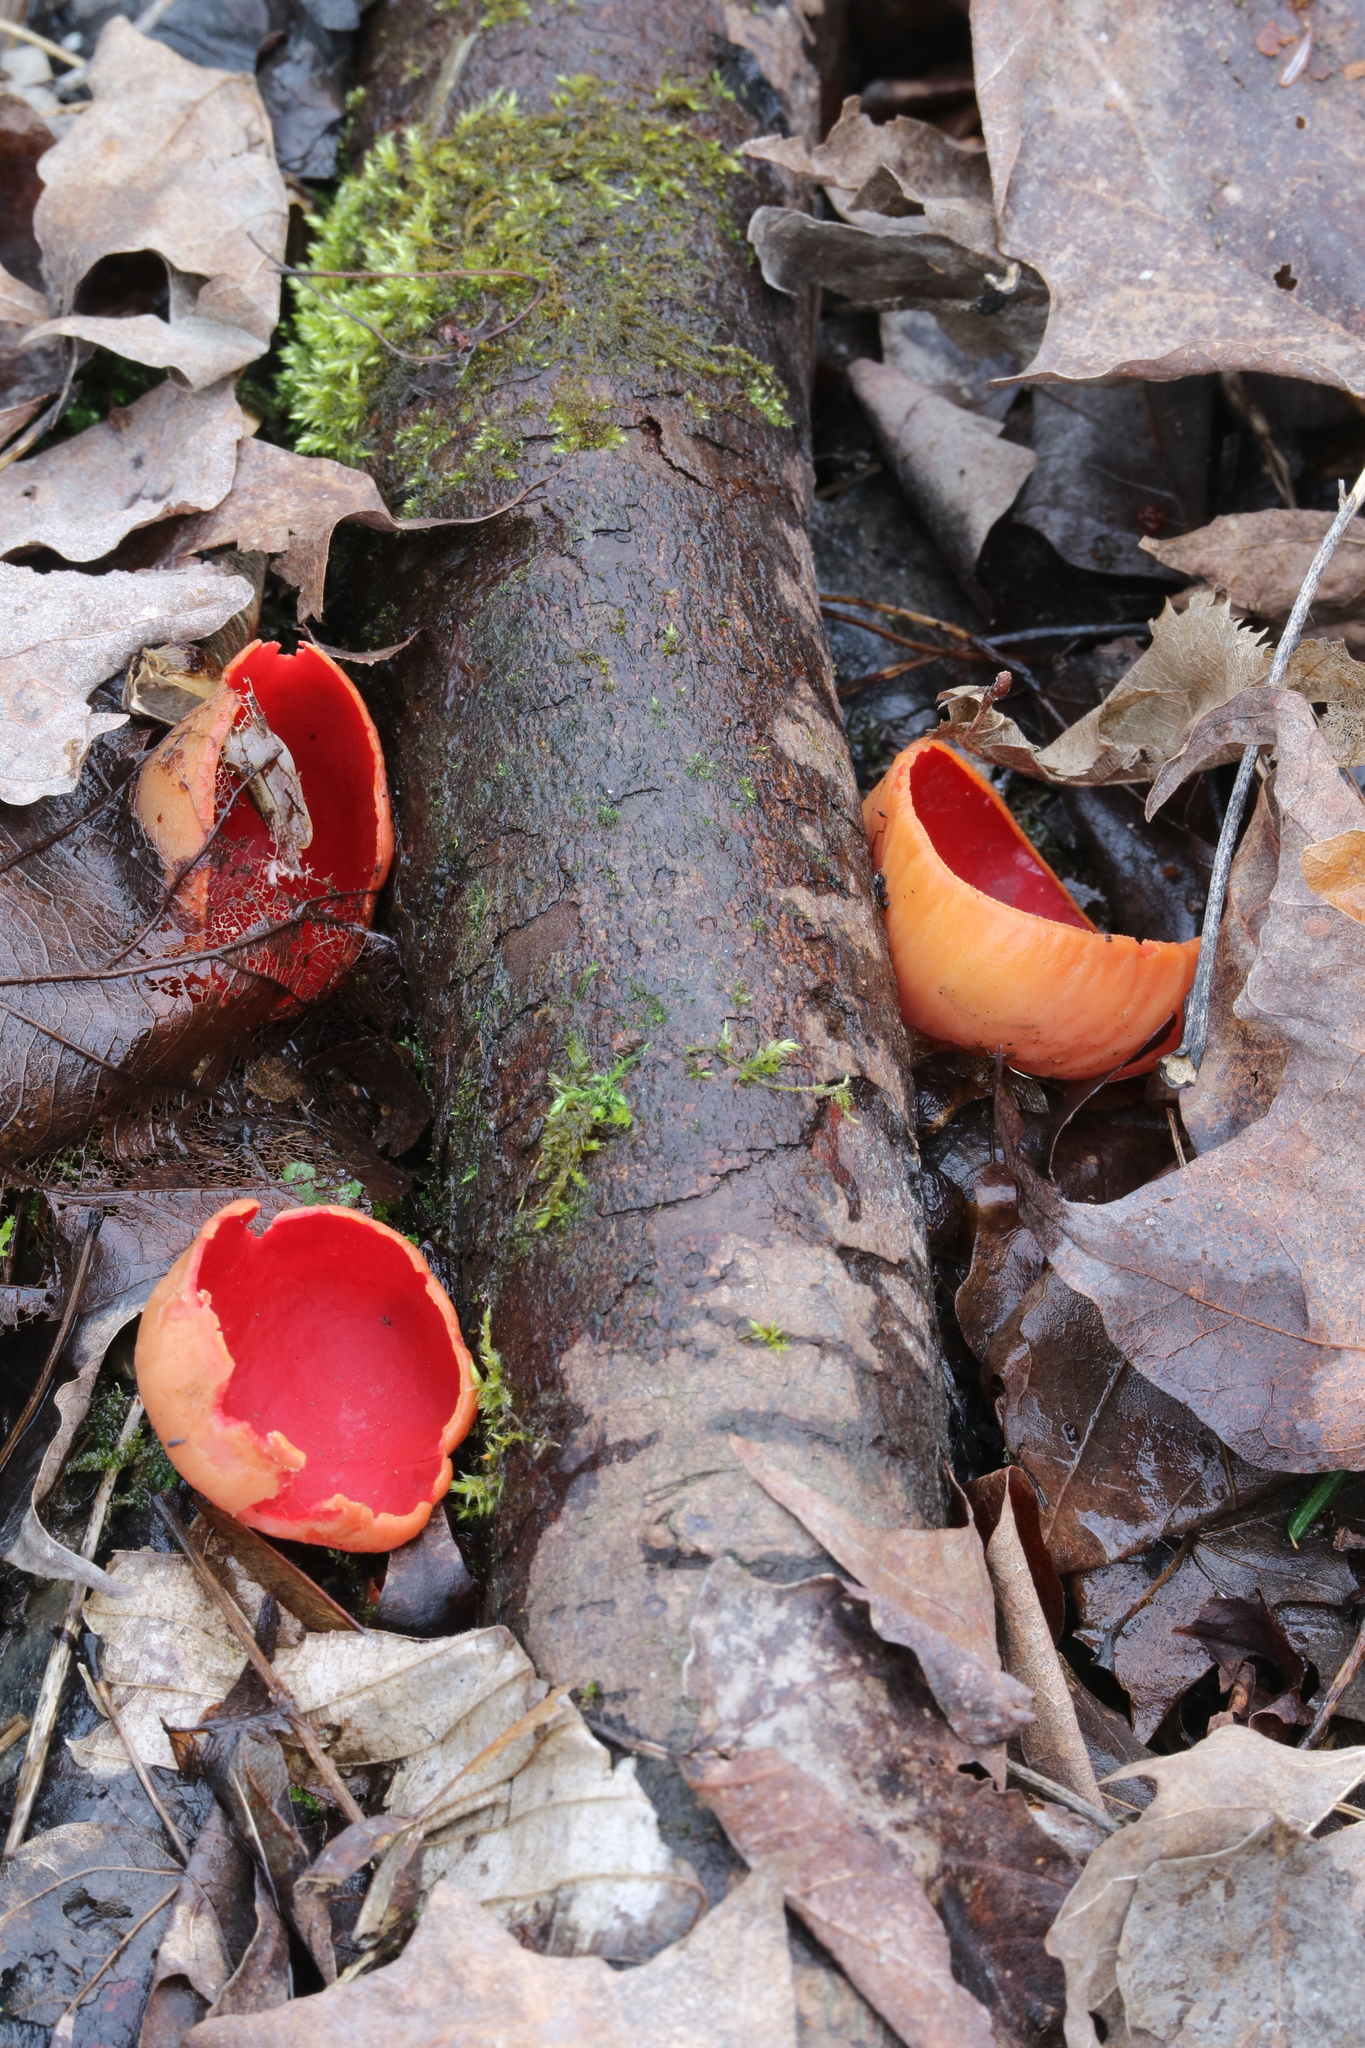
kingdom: Fungi
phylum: Ascomycota
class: Pezizomycetes
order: Pezizales
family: Sarcoscyphaceae
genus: Sarcoscypha
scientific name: Sarcoscypha austriaca
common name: Scarlet elfcup
